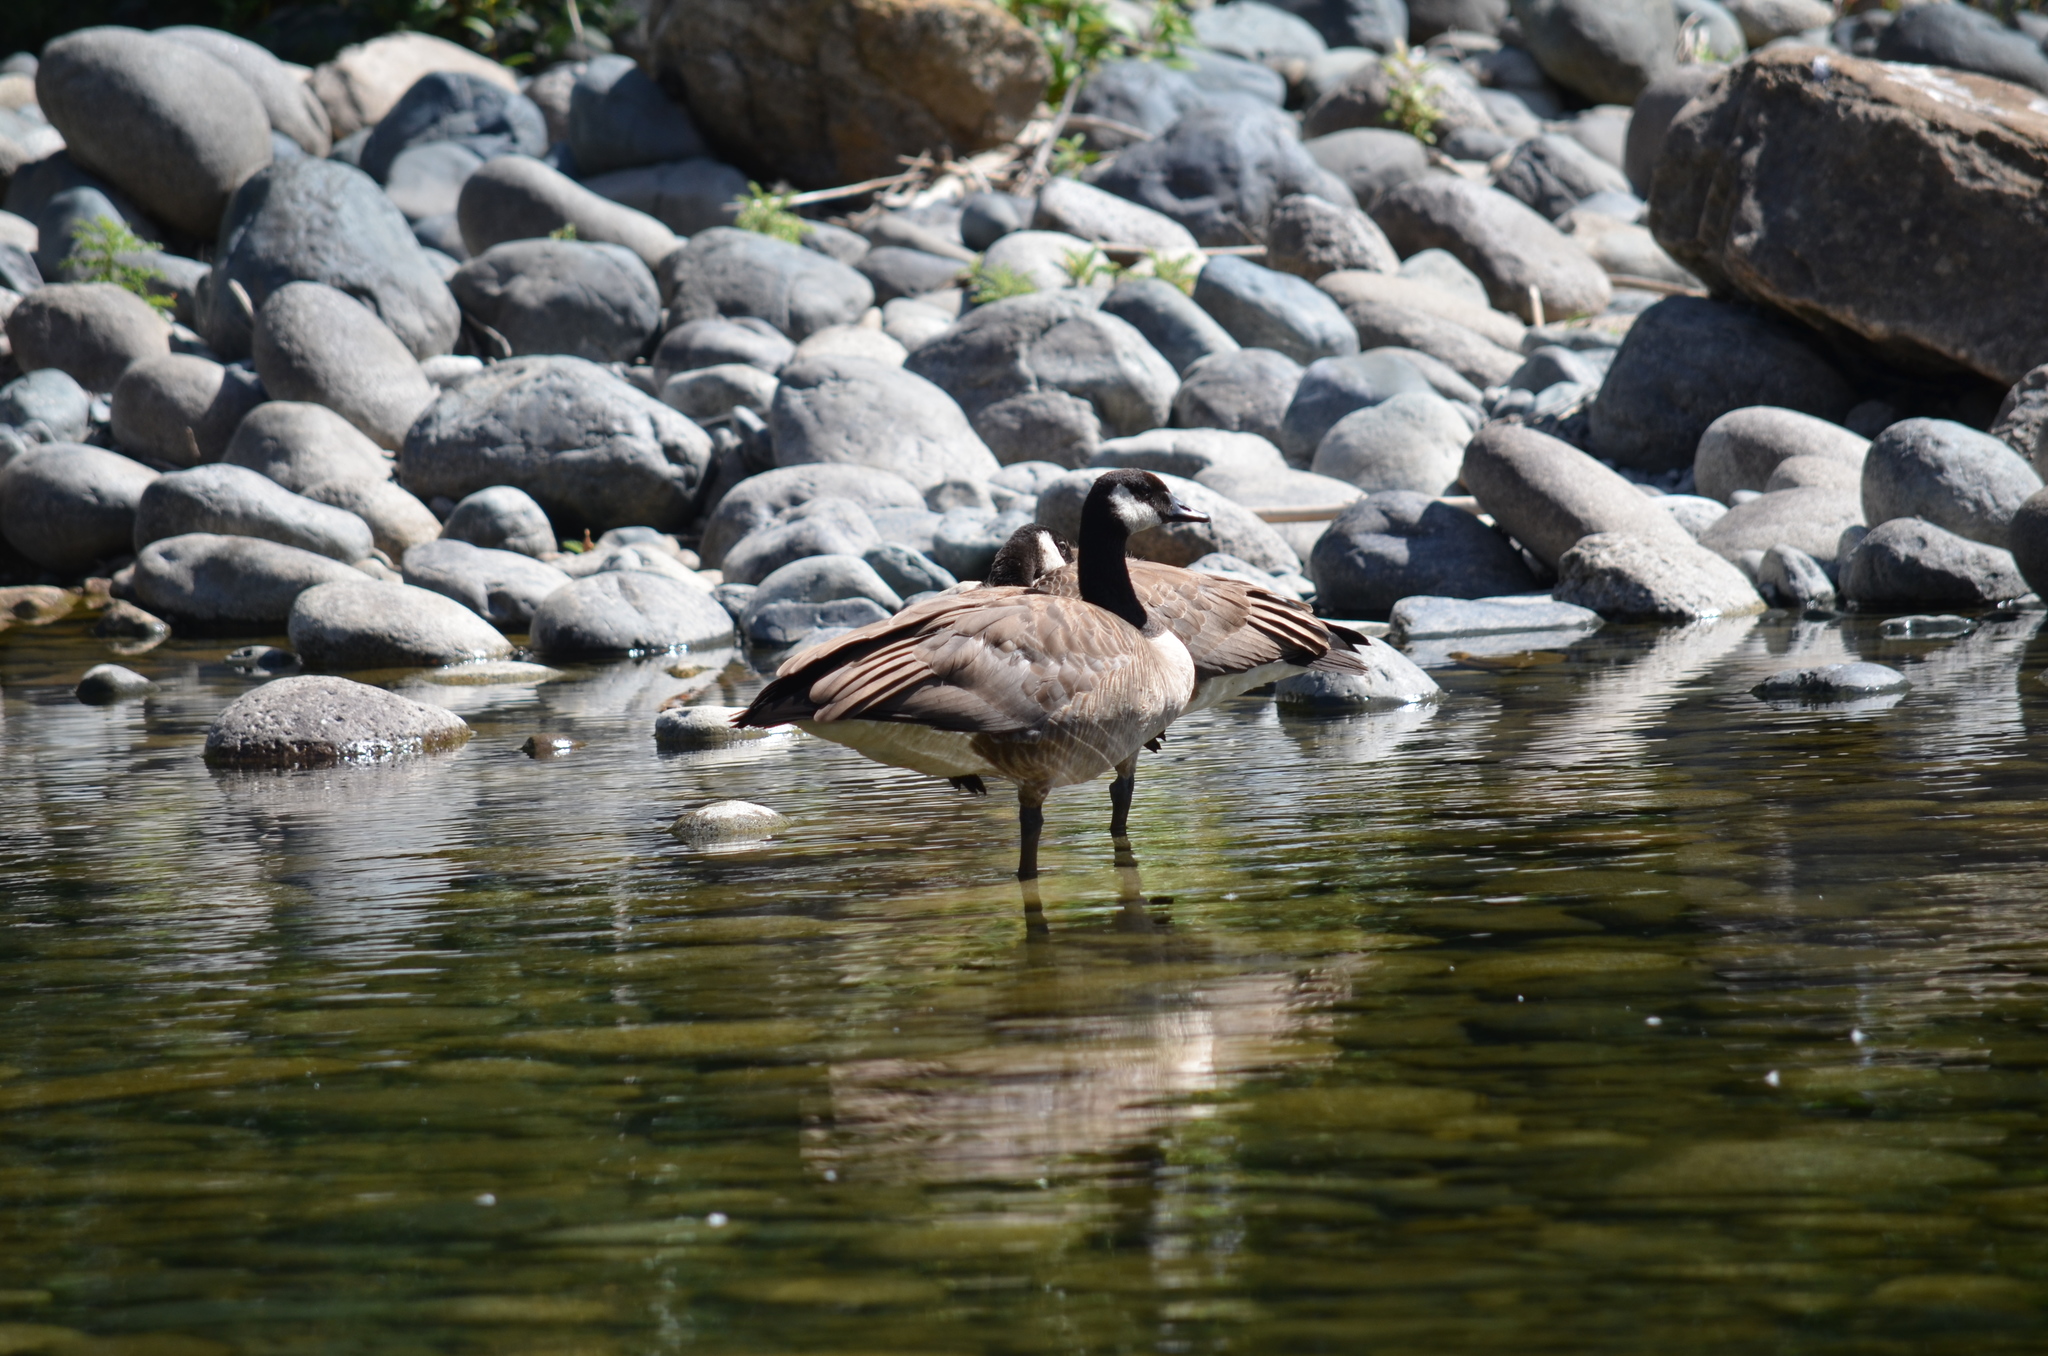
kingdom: Animalia
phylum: Chordata
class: Aves
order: Anseriformes
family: Anatidae
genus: Branta
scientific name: Branta canadensis
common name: Canada goose
